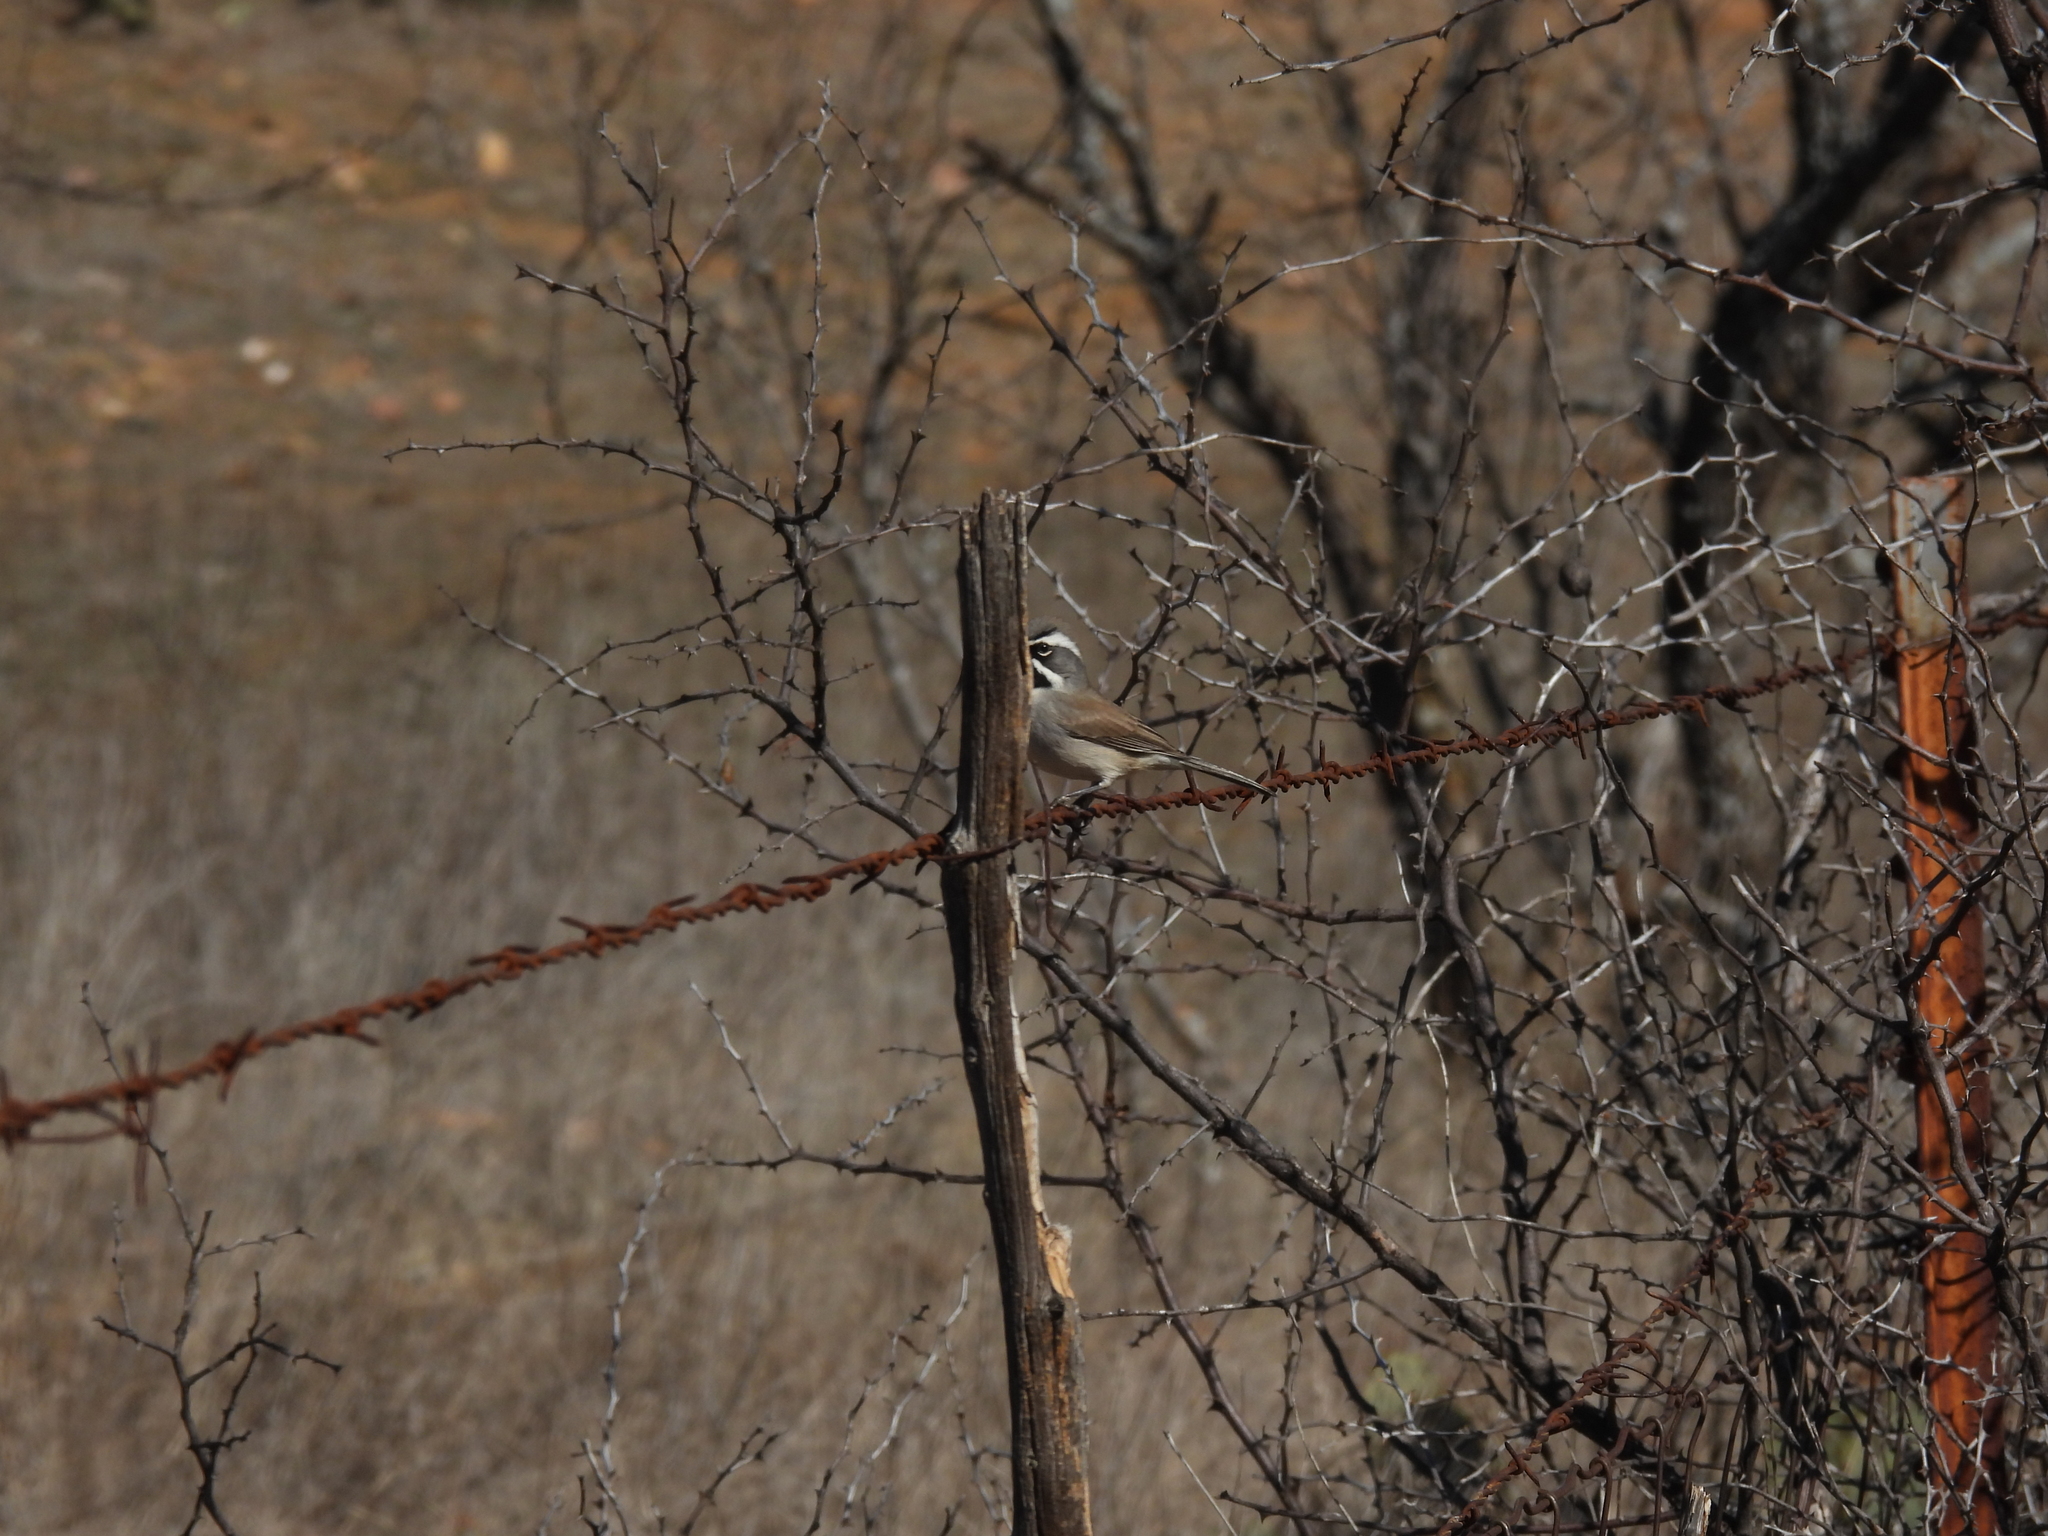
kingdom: Animalia
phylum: Chordata
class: Aves
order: Passeriformes
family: Passerellidae
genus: Amphispiza
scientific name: Amphispiza bilineata
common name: Black-throated sparrow
